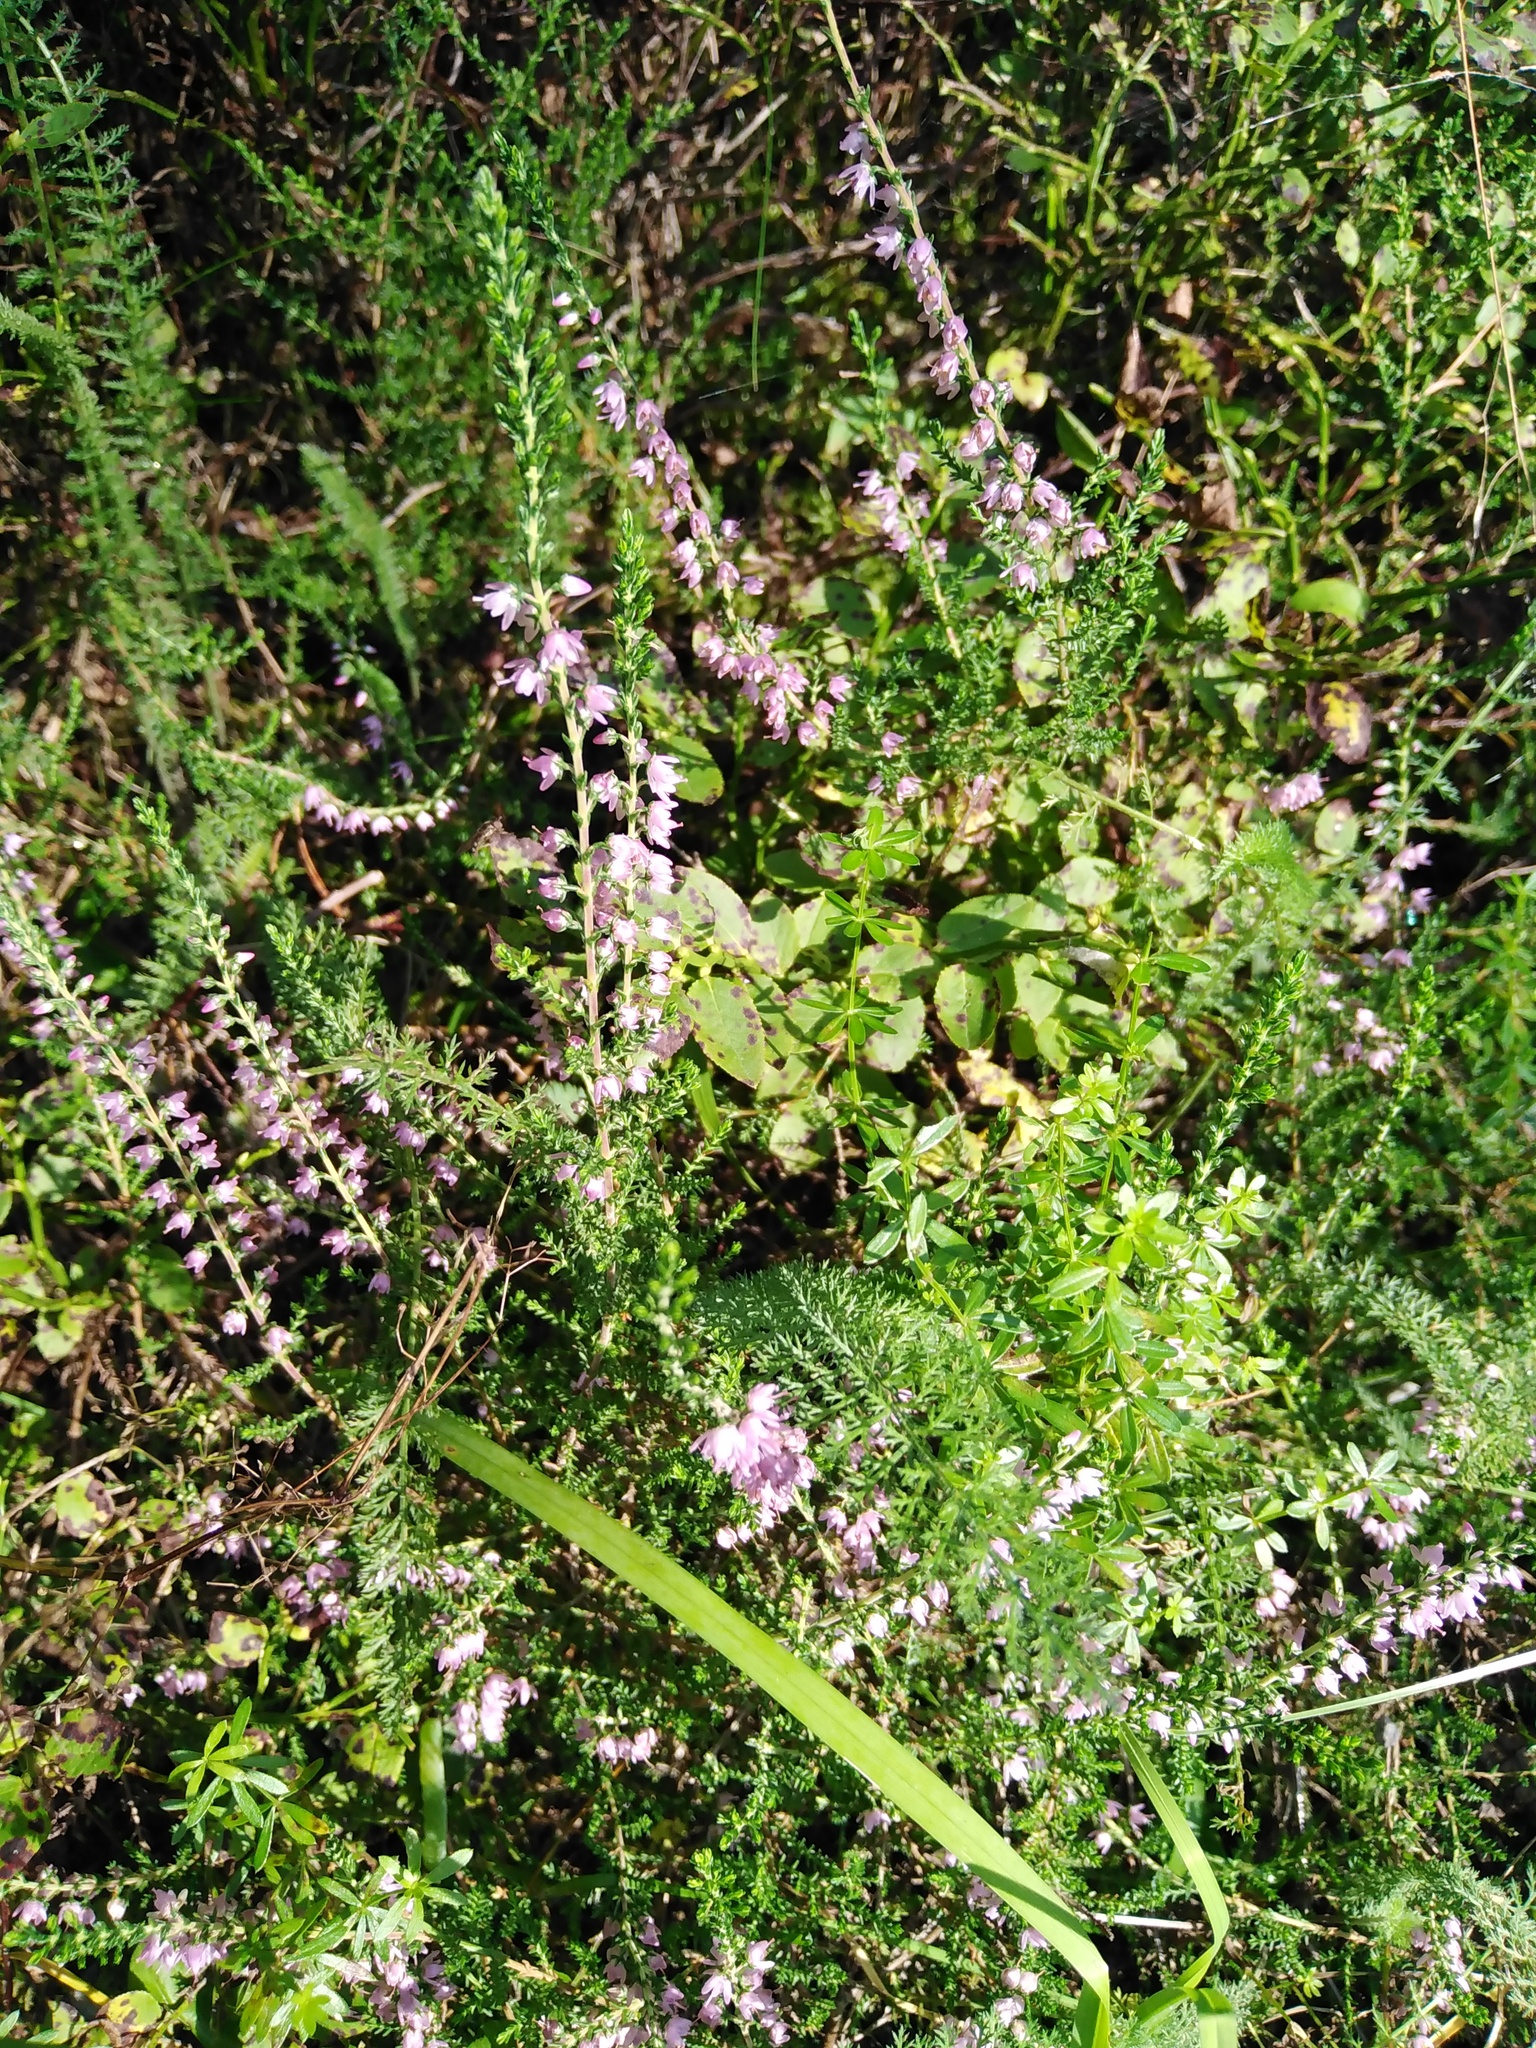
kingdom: Plantae
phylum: Tracheophyta
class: Magnoliopsida
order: Ericales
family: Ericaceae
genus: Calluna
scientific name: Calluna vulgaris
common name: Heather
